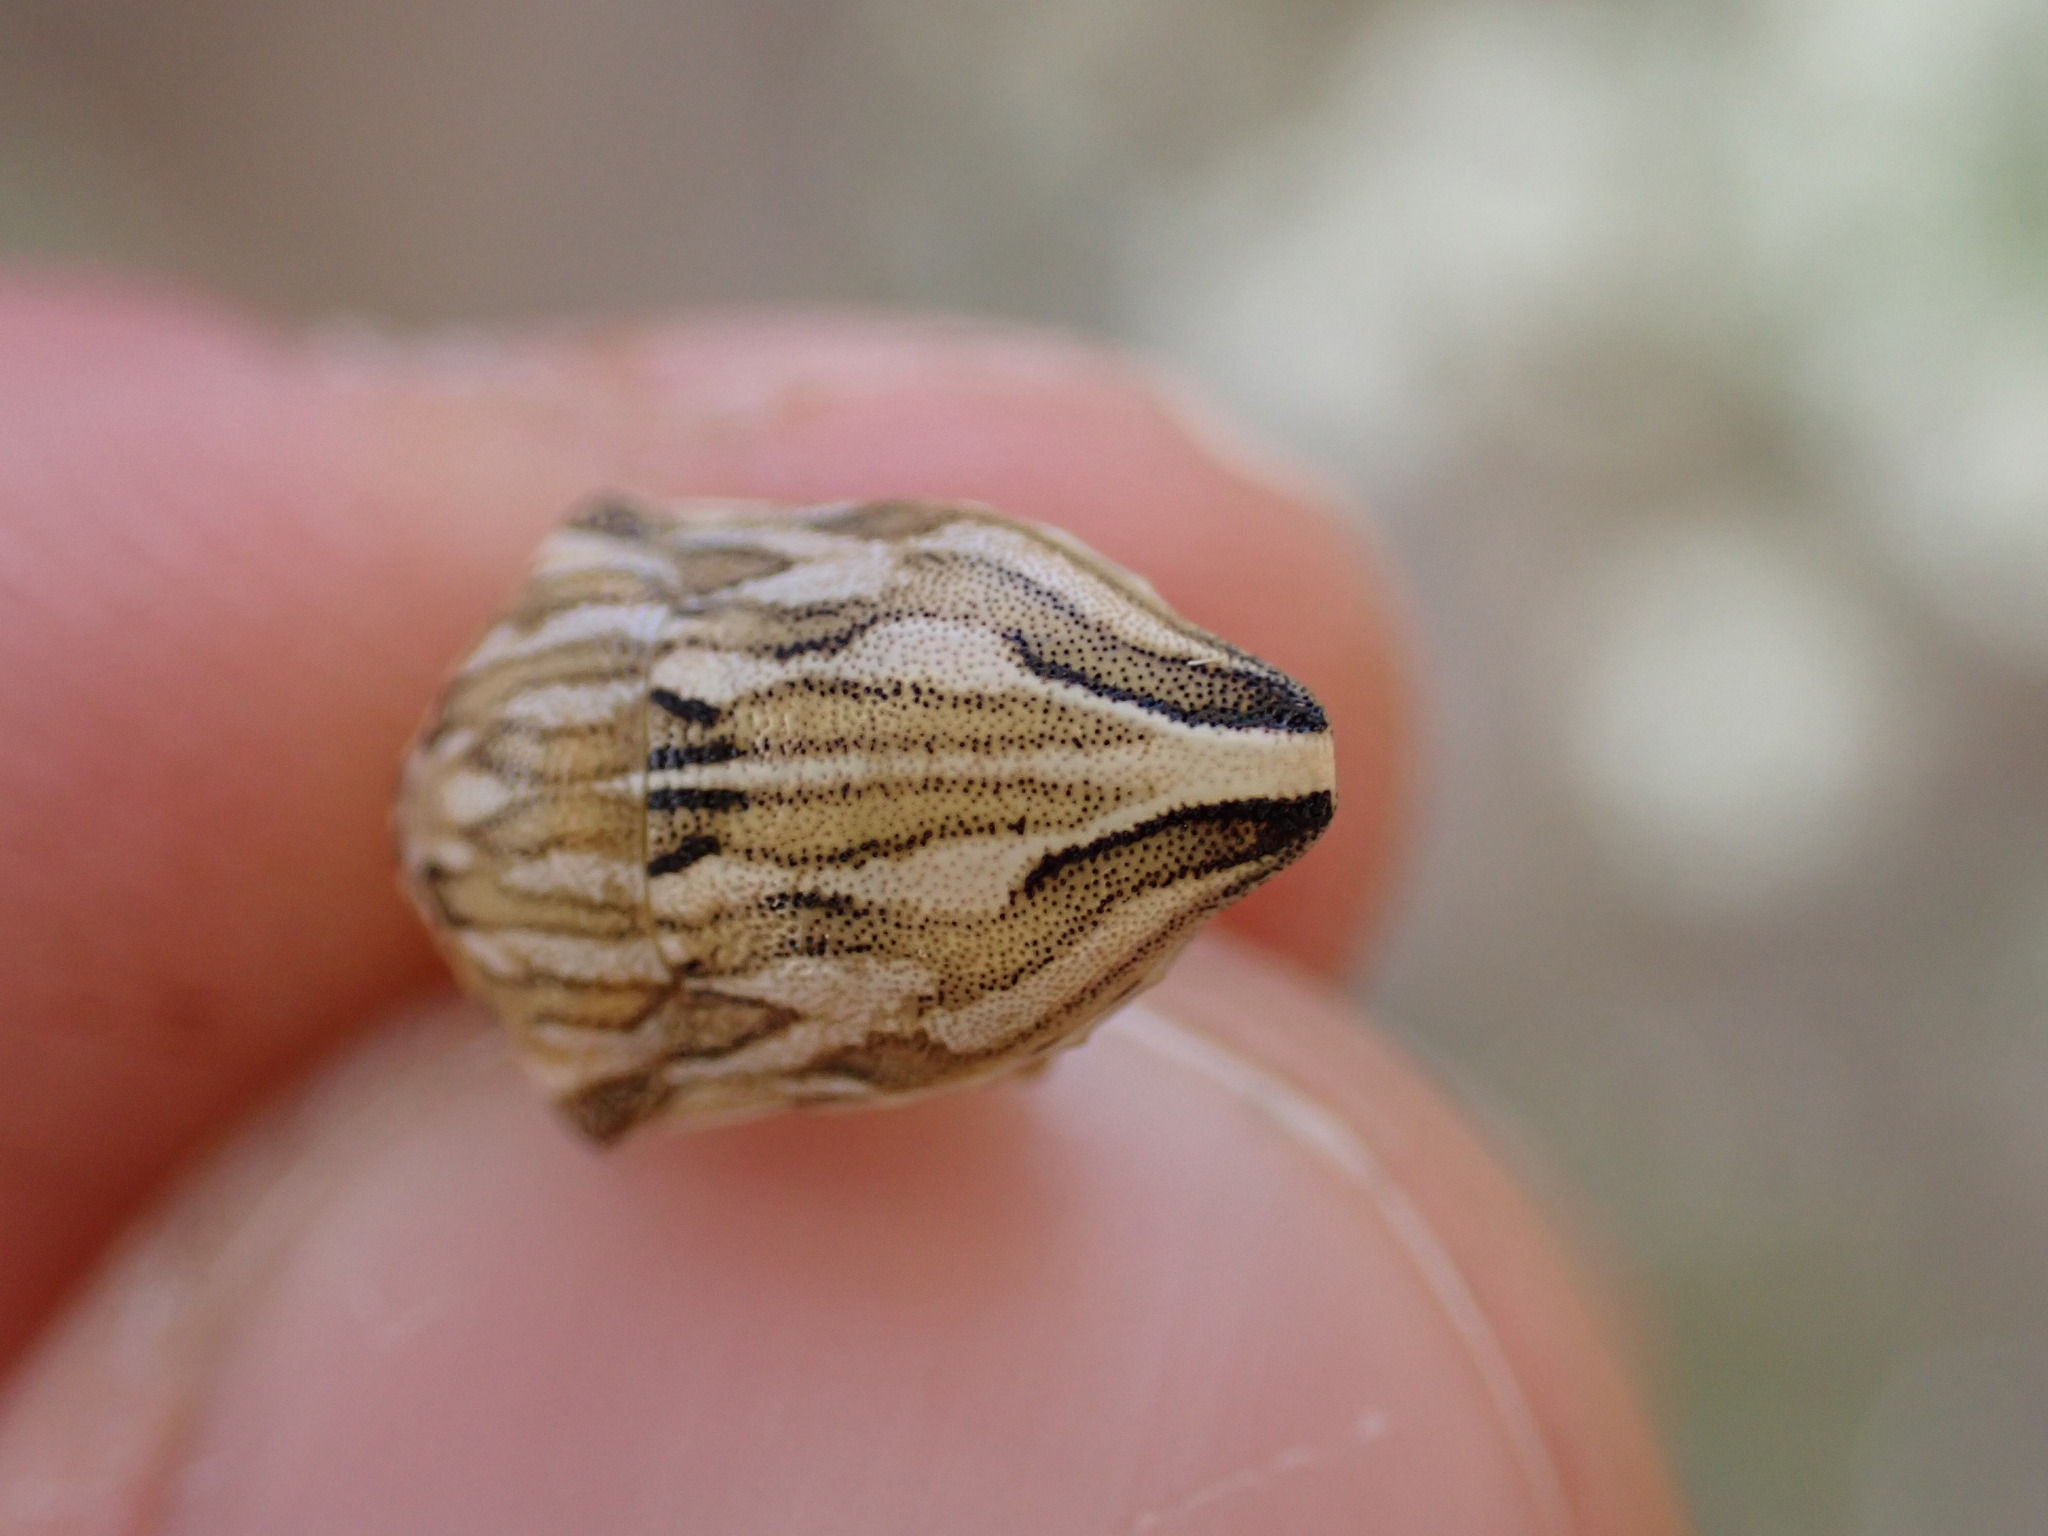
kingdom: Animalia
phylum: Arthropoda
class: Insecta
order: Hemiptera
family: Scutelleridae
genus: Odontotarsus
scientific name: Odontotarsus robustus
